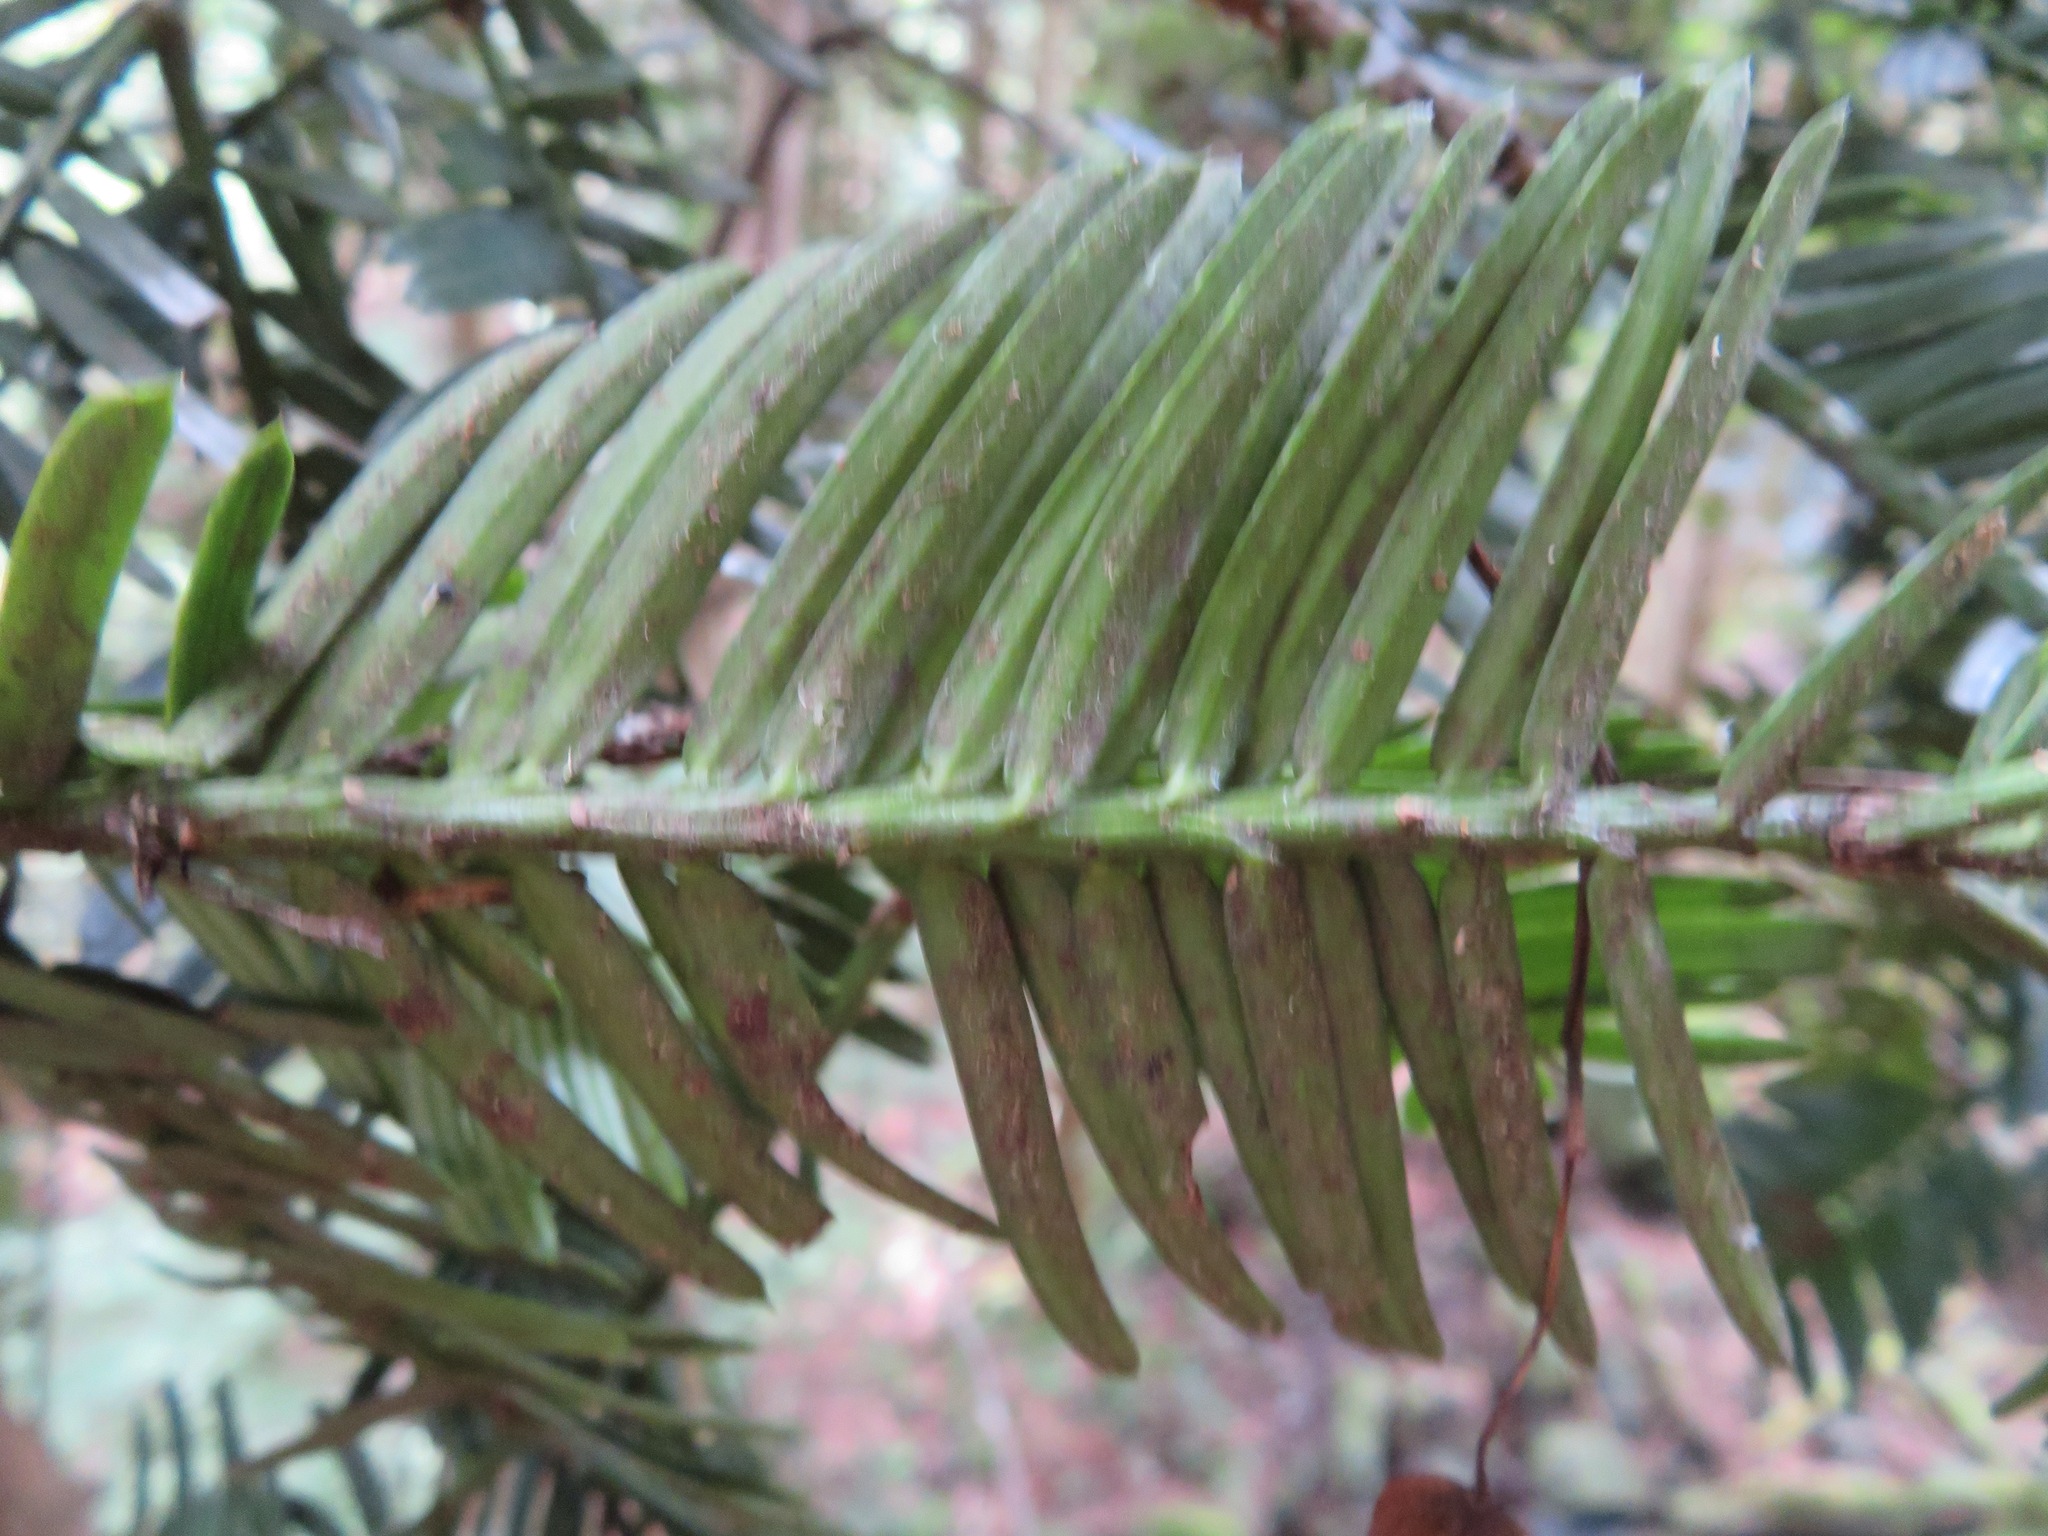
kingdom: Plantae
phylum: Tracheophyta
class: Pinopsida
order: Pinales
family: Cephalotaxaceae
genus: Cephalotaxus
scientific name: Cephalotaxus harringtonia
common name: Japanese plum-yew
